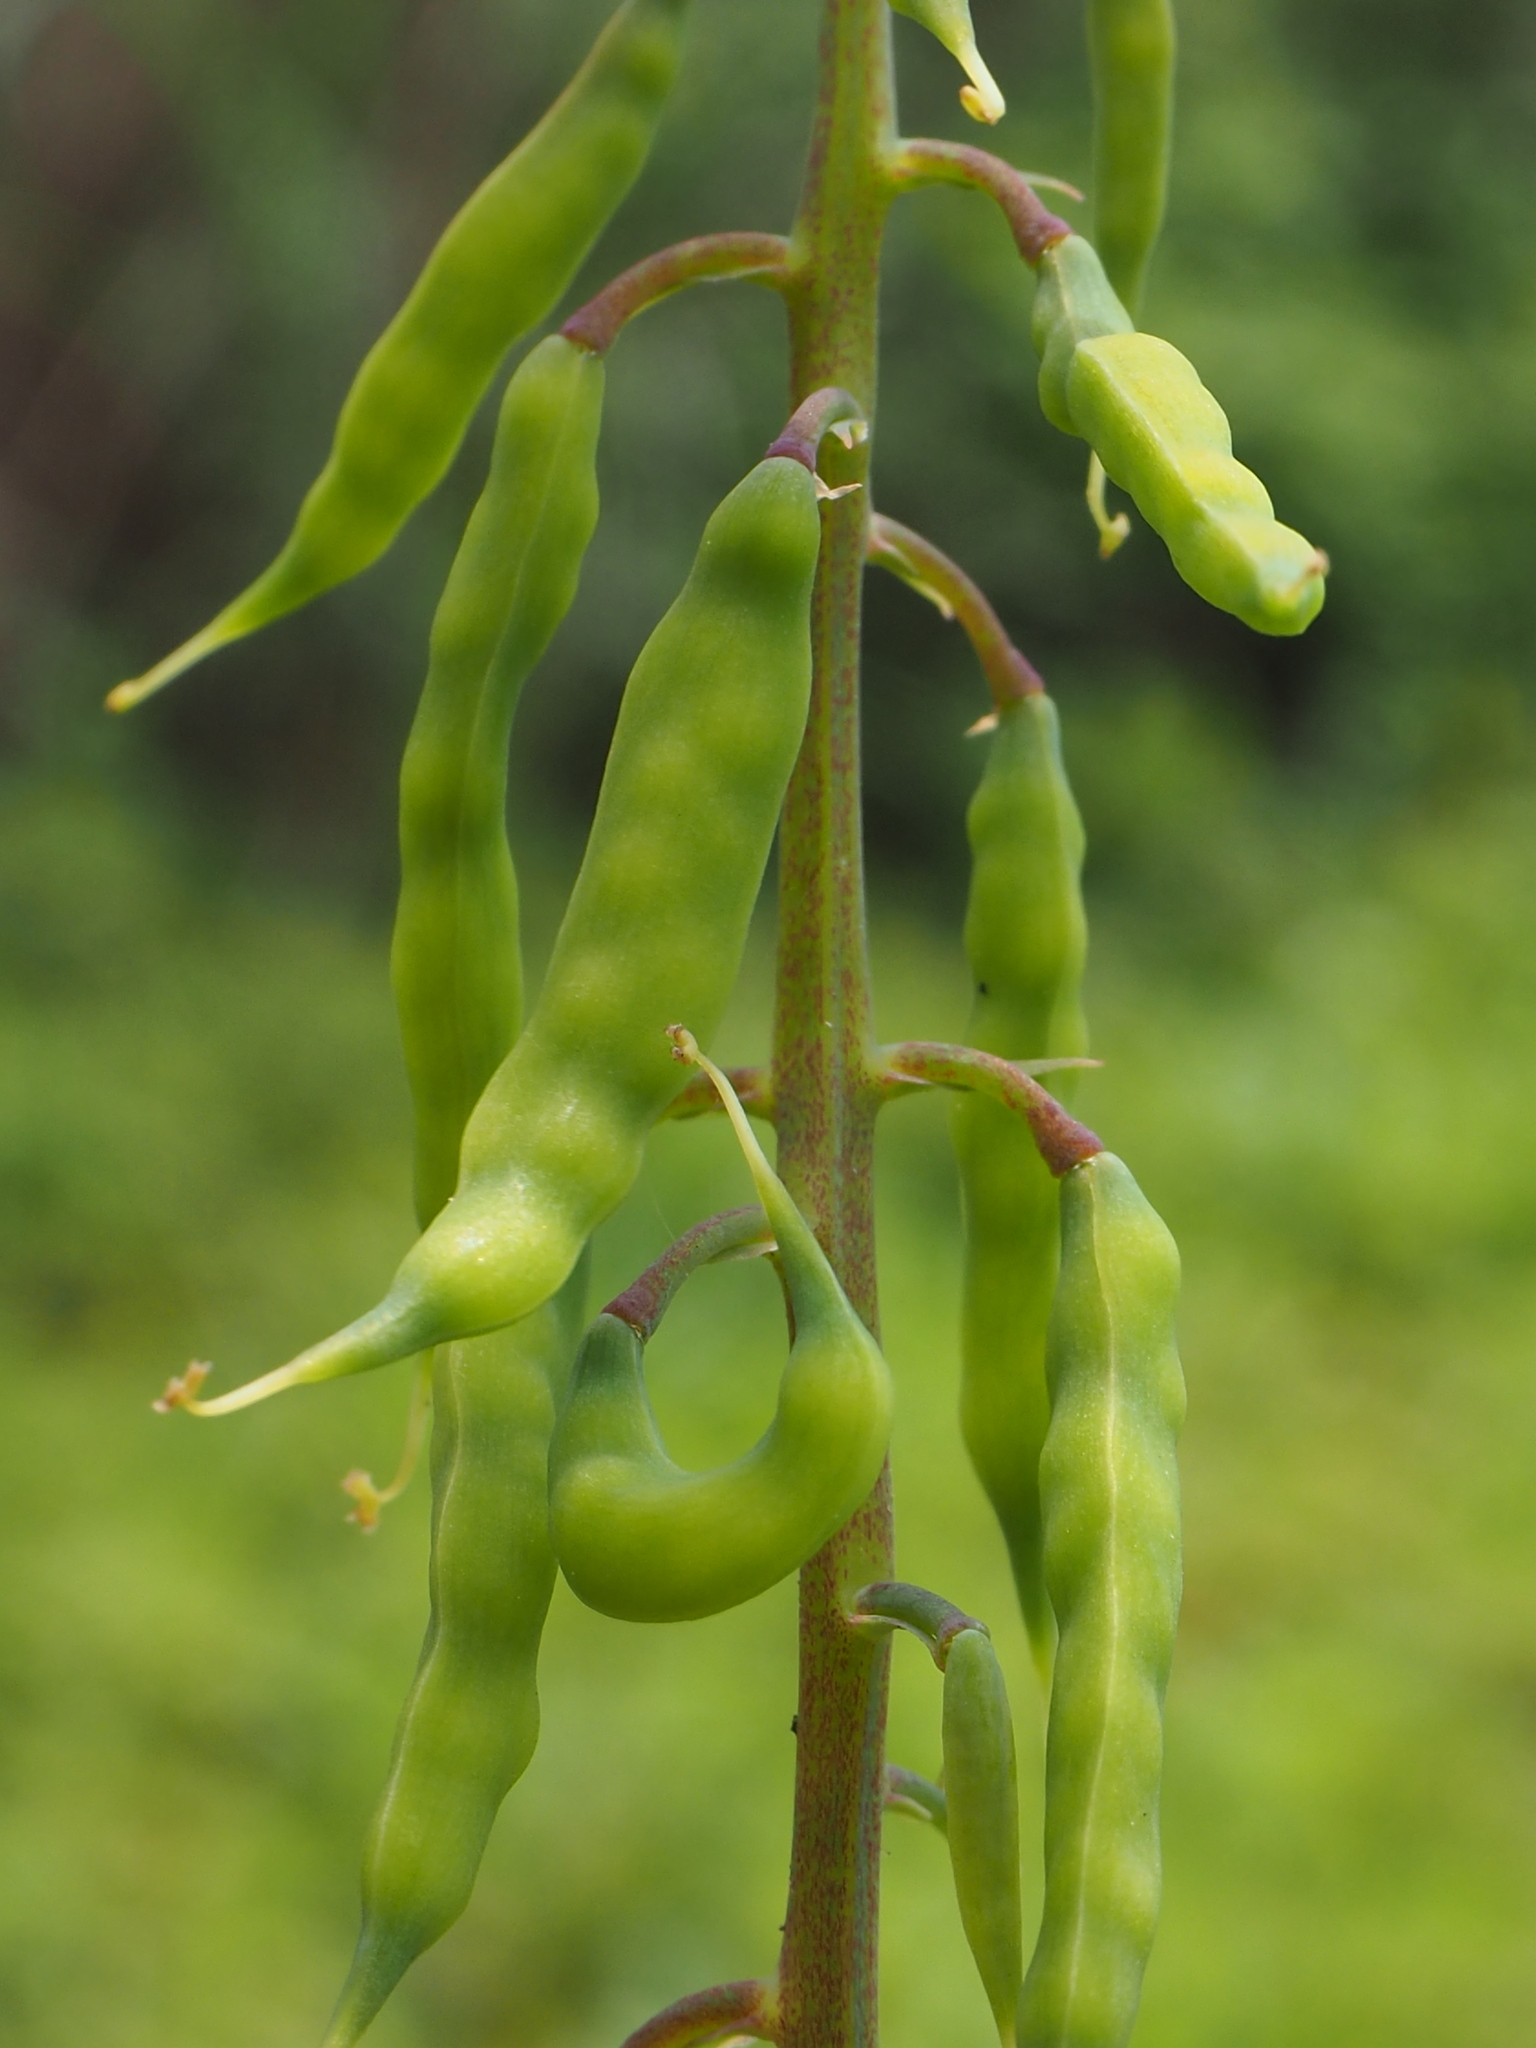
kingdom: Plantae
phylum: Tracheophyta
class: Magnoliopsida
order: Ranunculales
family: Papaveraceae
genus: Corydalis
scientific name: Corydalis balansae
